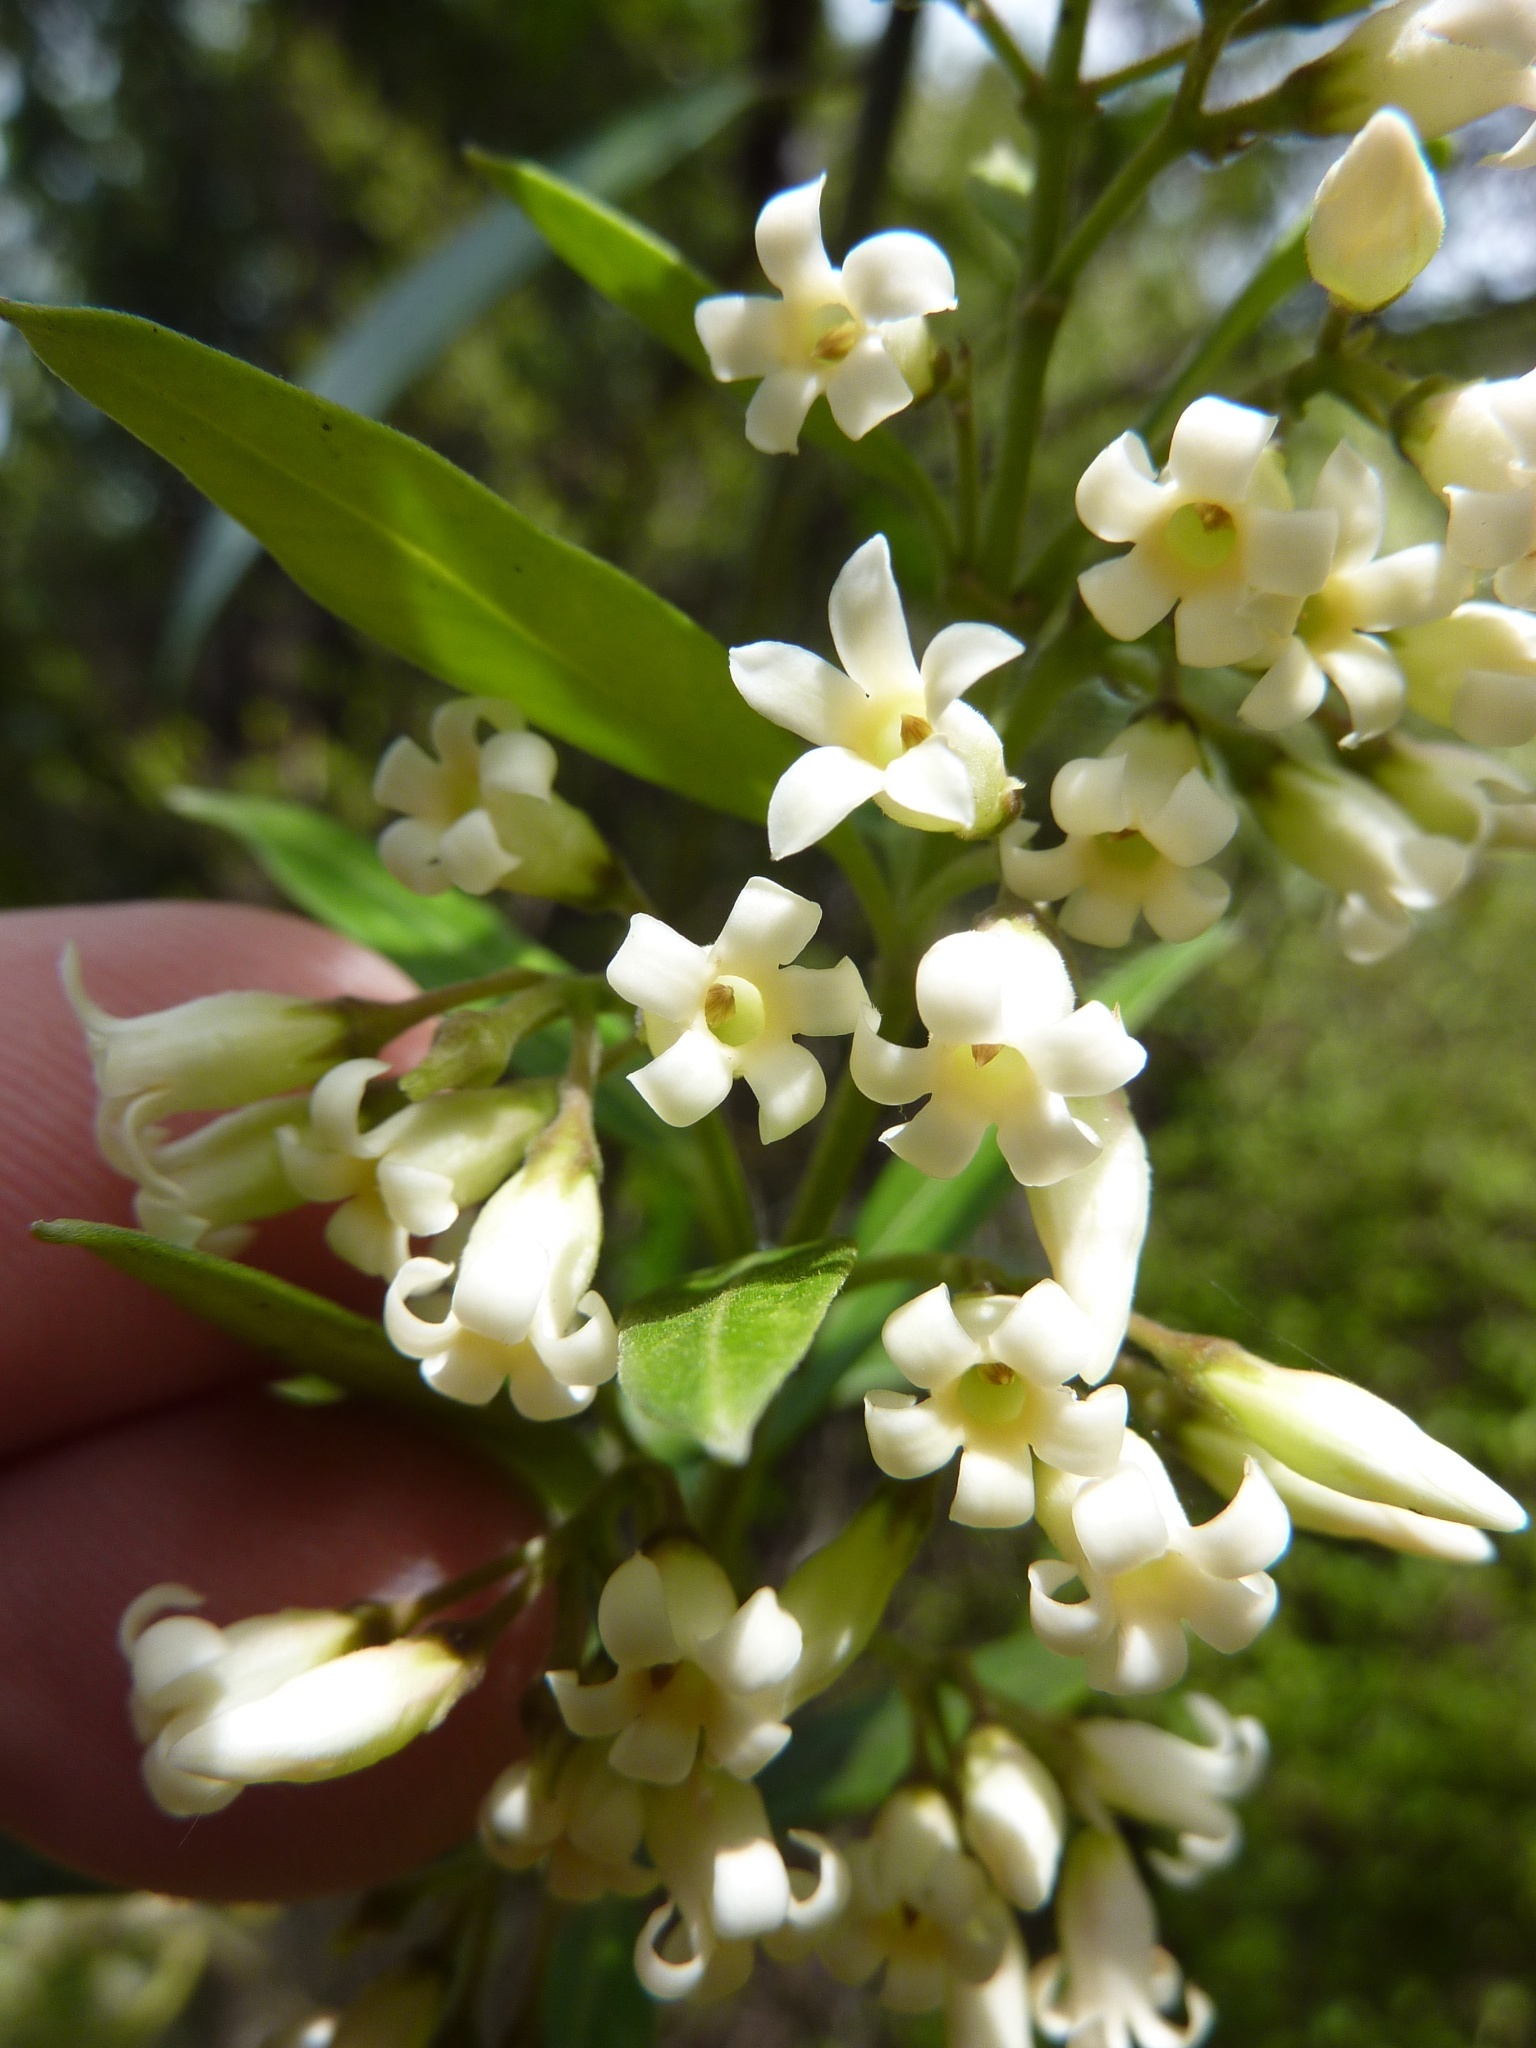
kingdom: Plantae
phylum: Tracheophyta
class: Magnoliopsida
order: Gentianales
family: Apocynaceae
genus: Parsonsia
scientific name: Parsonsia heterophylla
